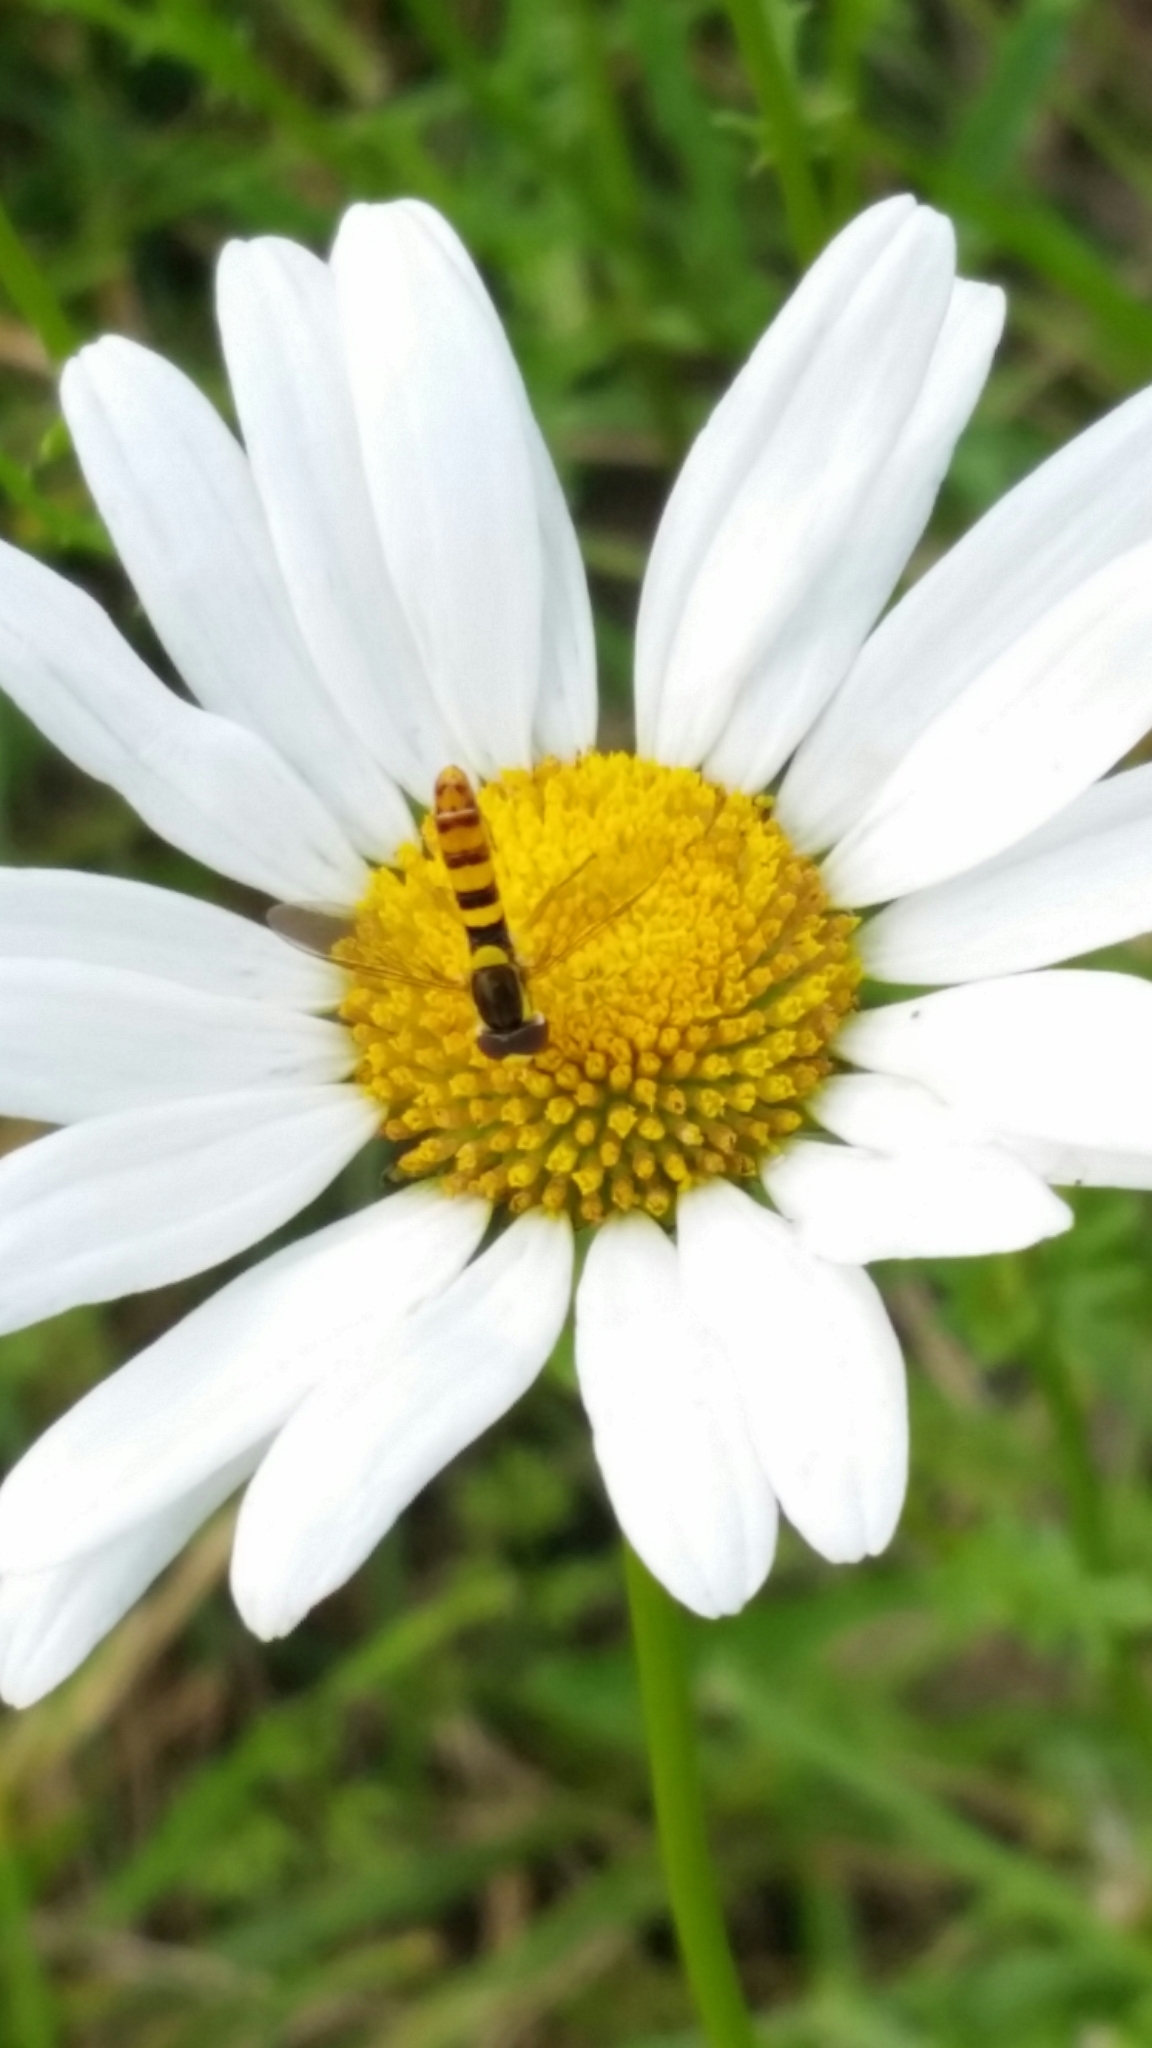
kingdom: Animalia
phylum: Arthropoda
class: Insecta
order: Diptera
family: Syrphidae
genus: Sphaerophoria
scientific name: Sphaerophoria
